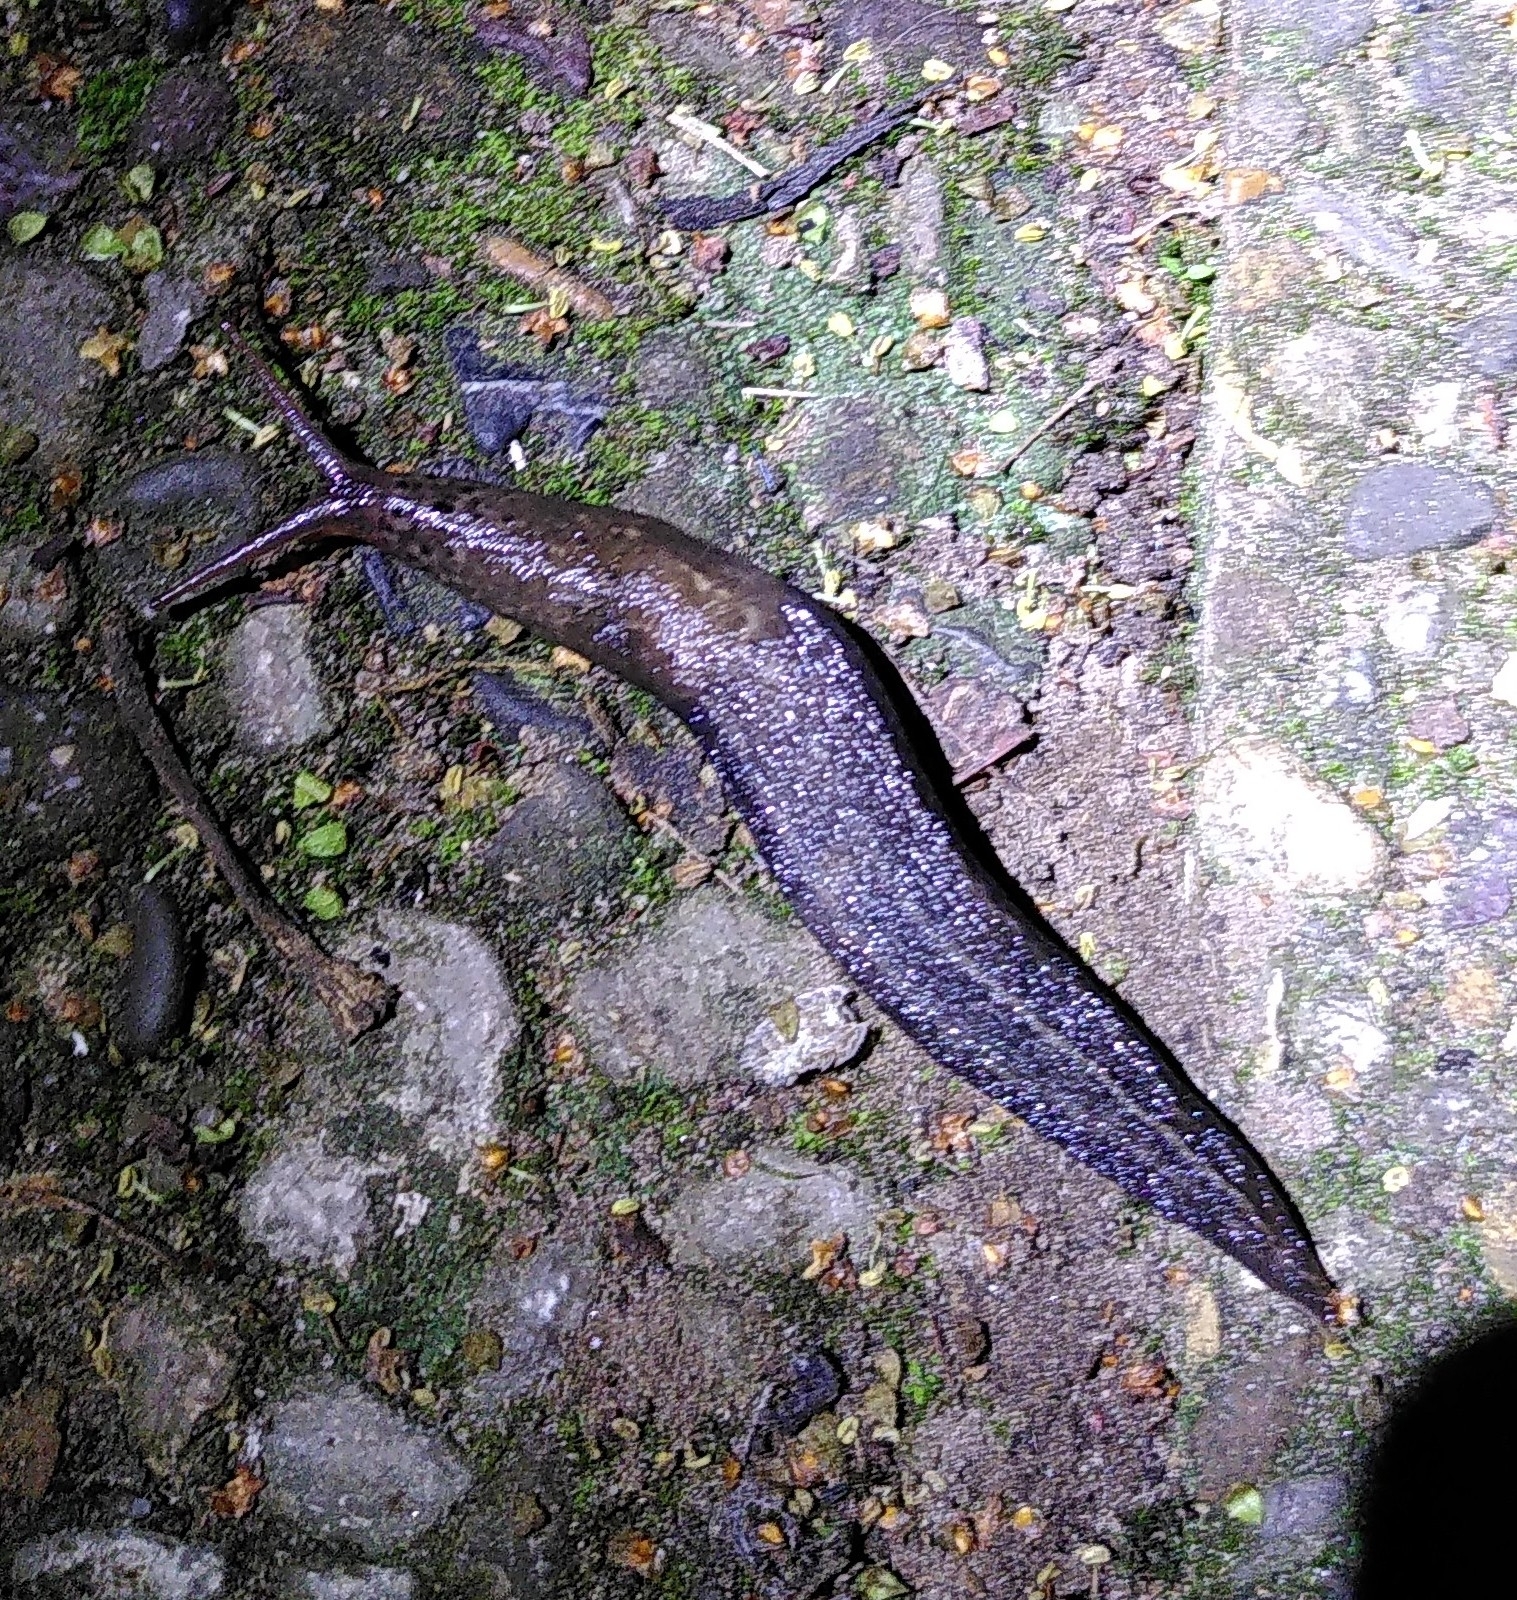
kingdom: Animalia
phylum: Mollusca
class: Gastropoda
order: Stylommatophora
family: Limacidae
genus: Limax
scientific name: Limax maximus
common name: Great grey slug
